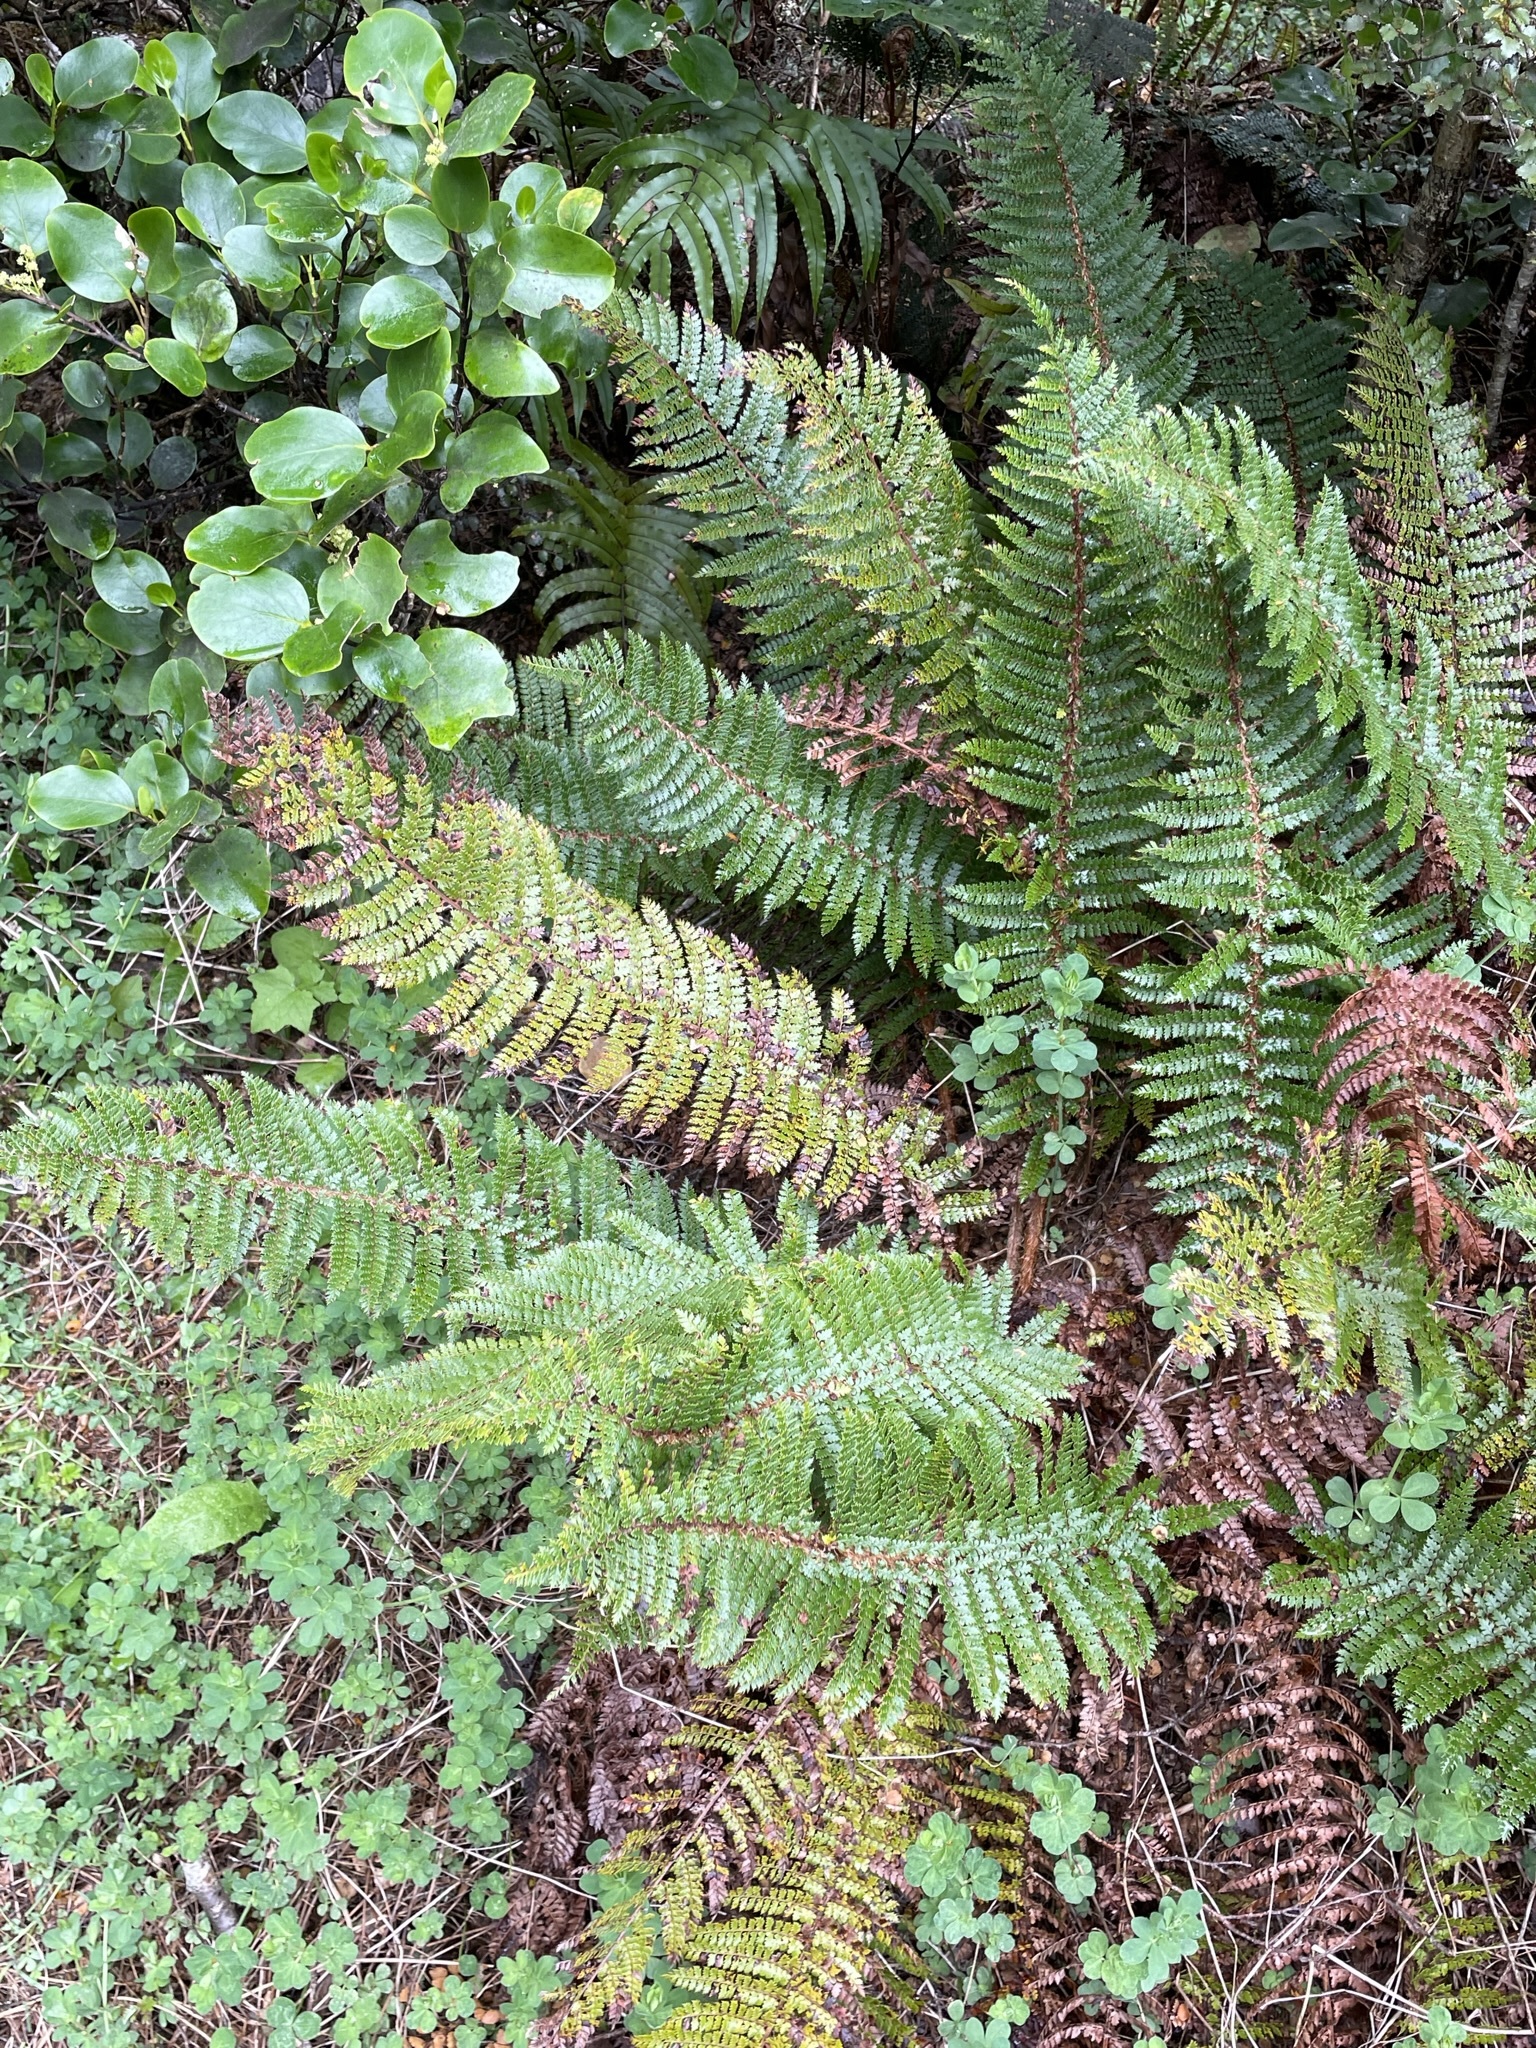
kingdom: Plantae
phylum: Tracheophyta
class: Polypodiopsida
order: Polypodiales
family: Dryopteridaceae
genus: Polystichum
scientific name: Polystichum vestitum
